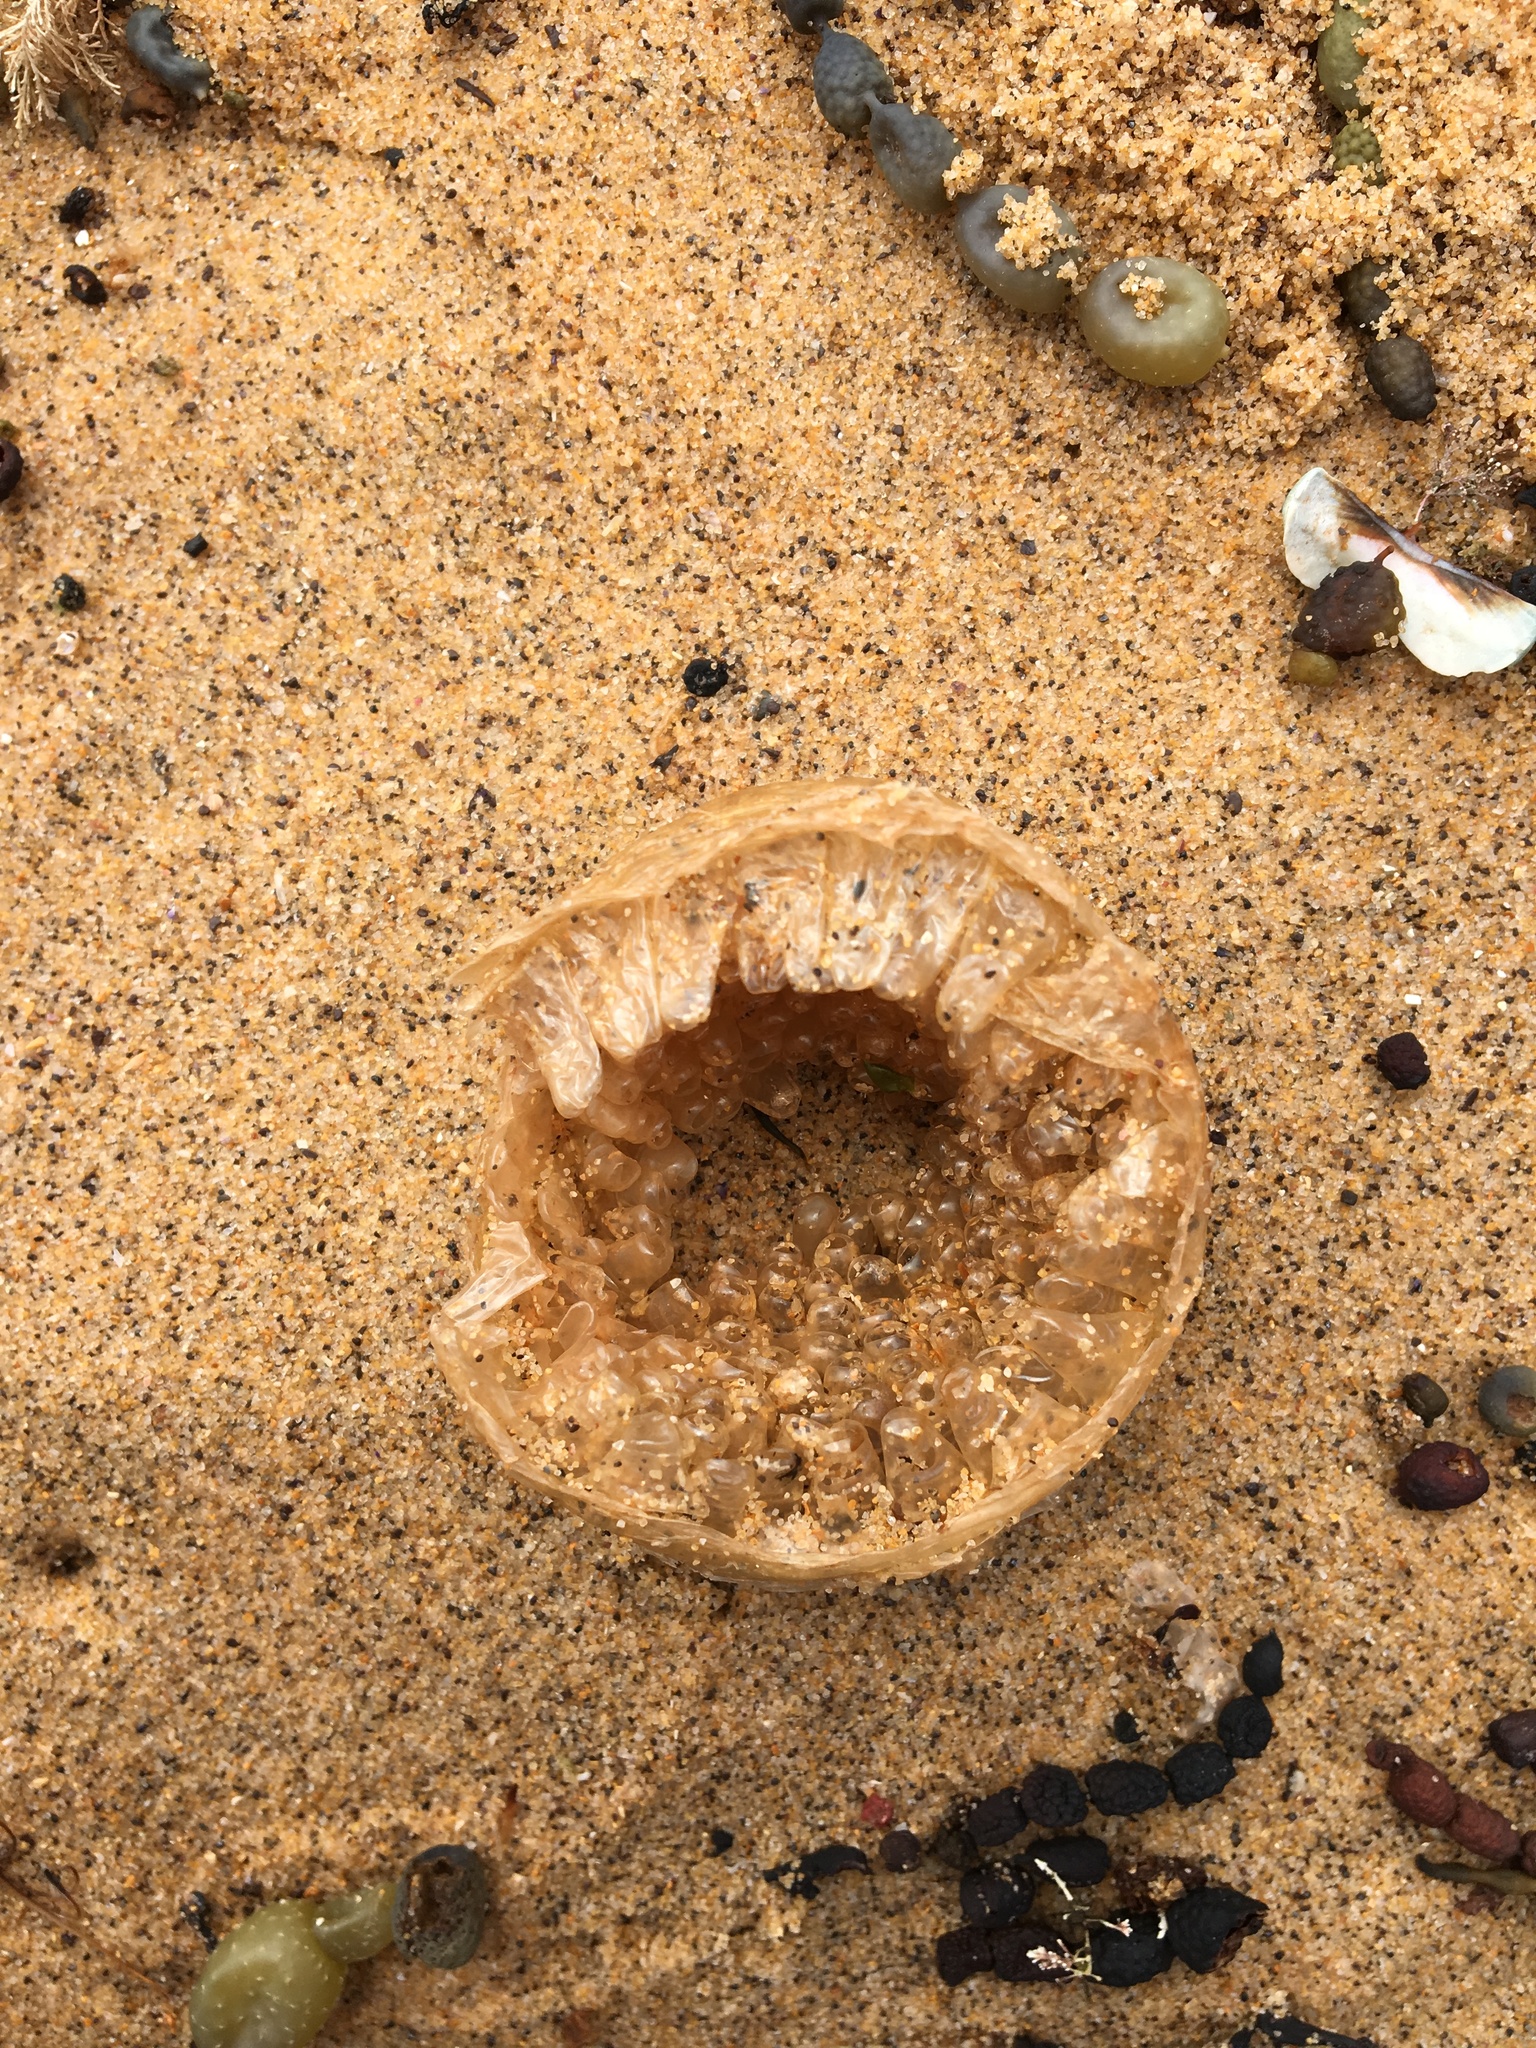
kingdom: Animalia
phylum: Mollusca
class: Gastropoda
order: Littorinimorpha
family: Cymatiidae
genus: Cabestana
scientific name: Cabestana spengleri
